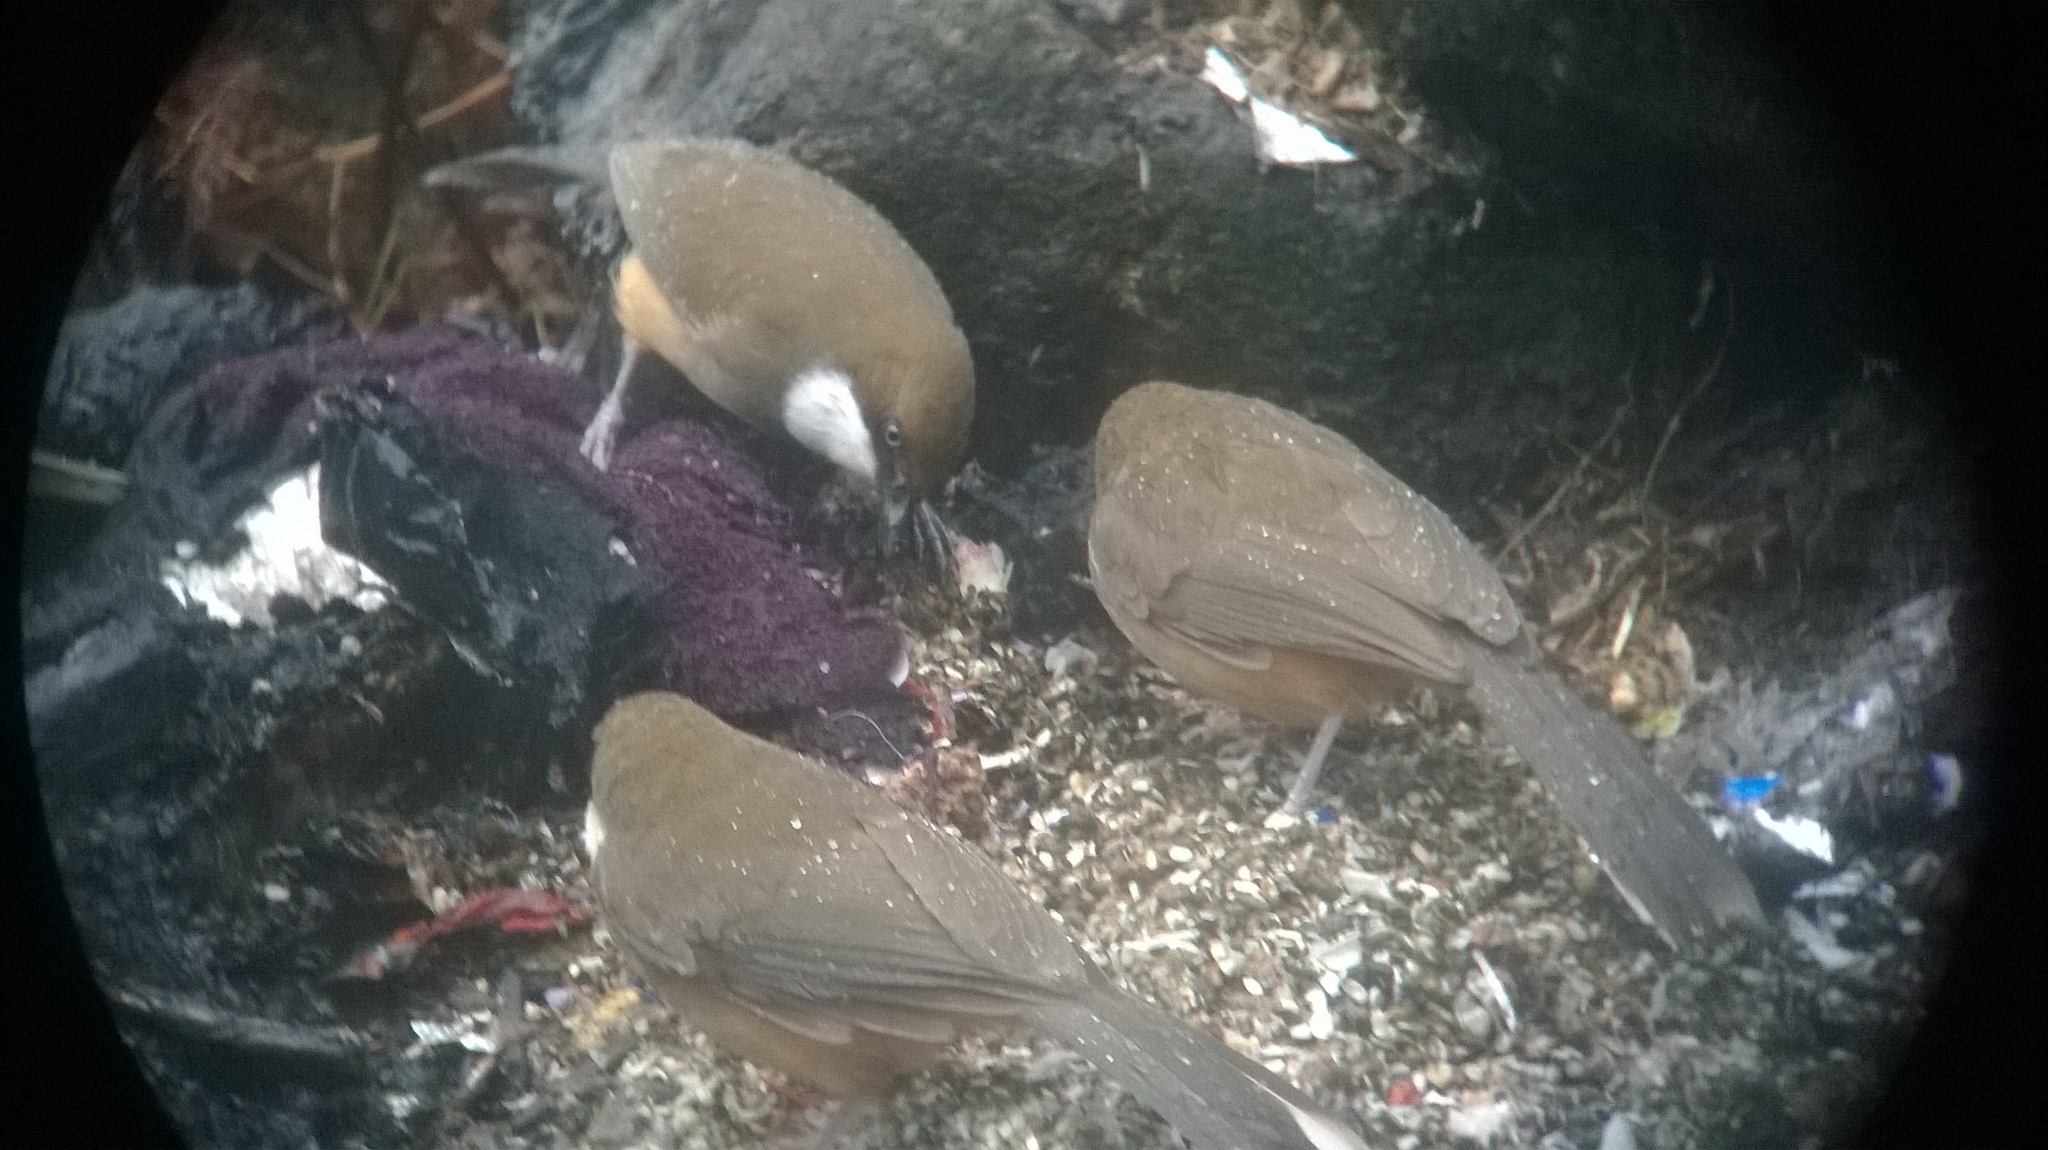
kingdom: Animalia
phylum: Chordata
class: Aves
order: Passeriformes
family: Leiothrichidae
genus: Garrulax
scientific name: Garrulax albogularis
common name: White-throated laughingthrush
